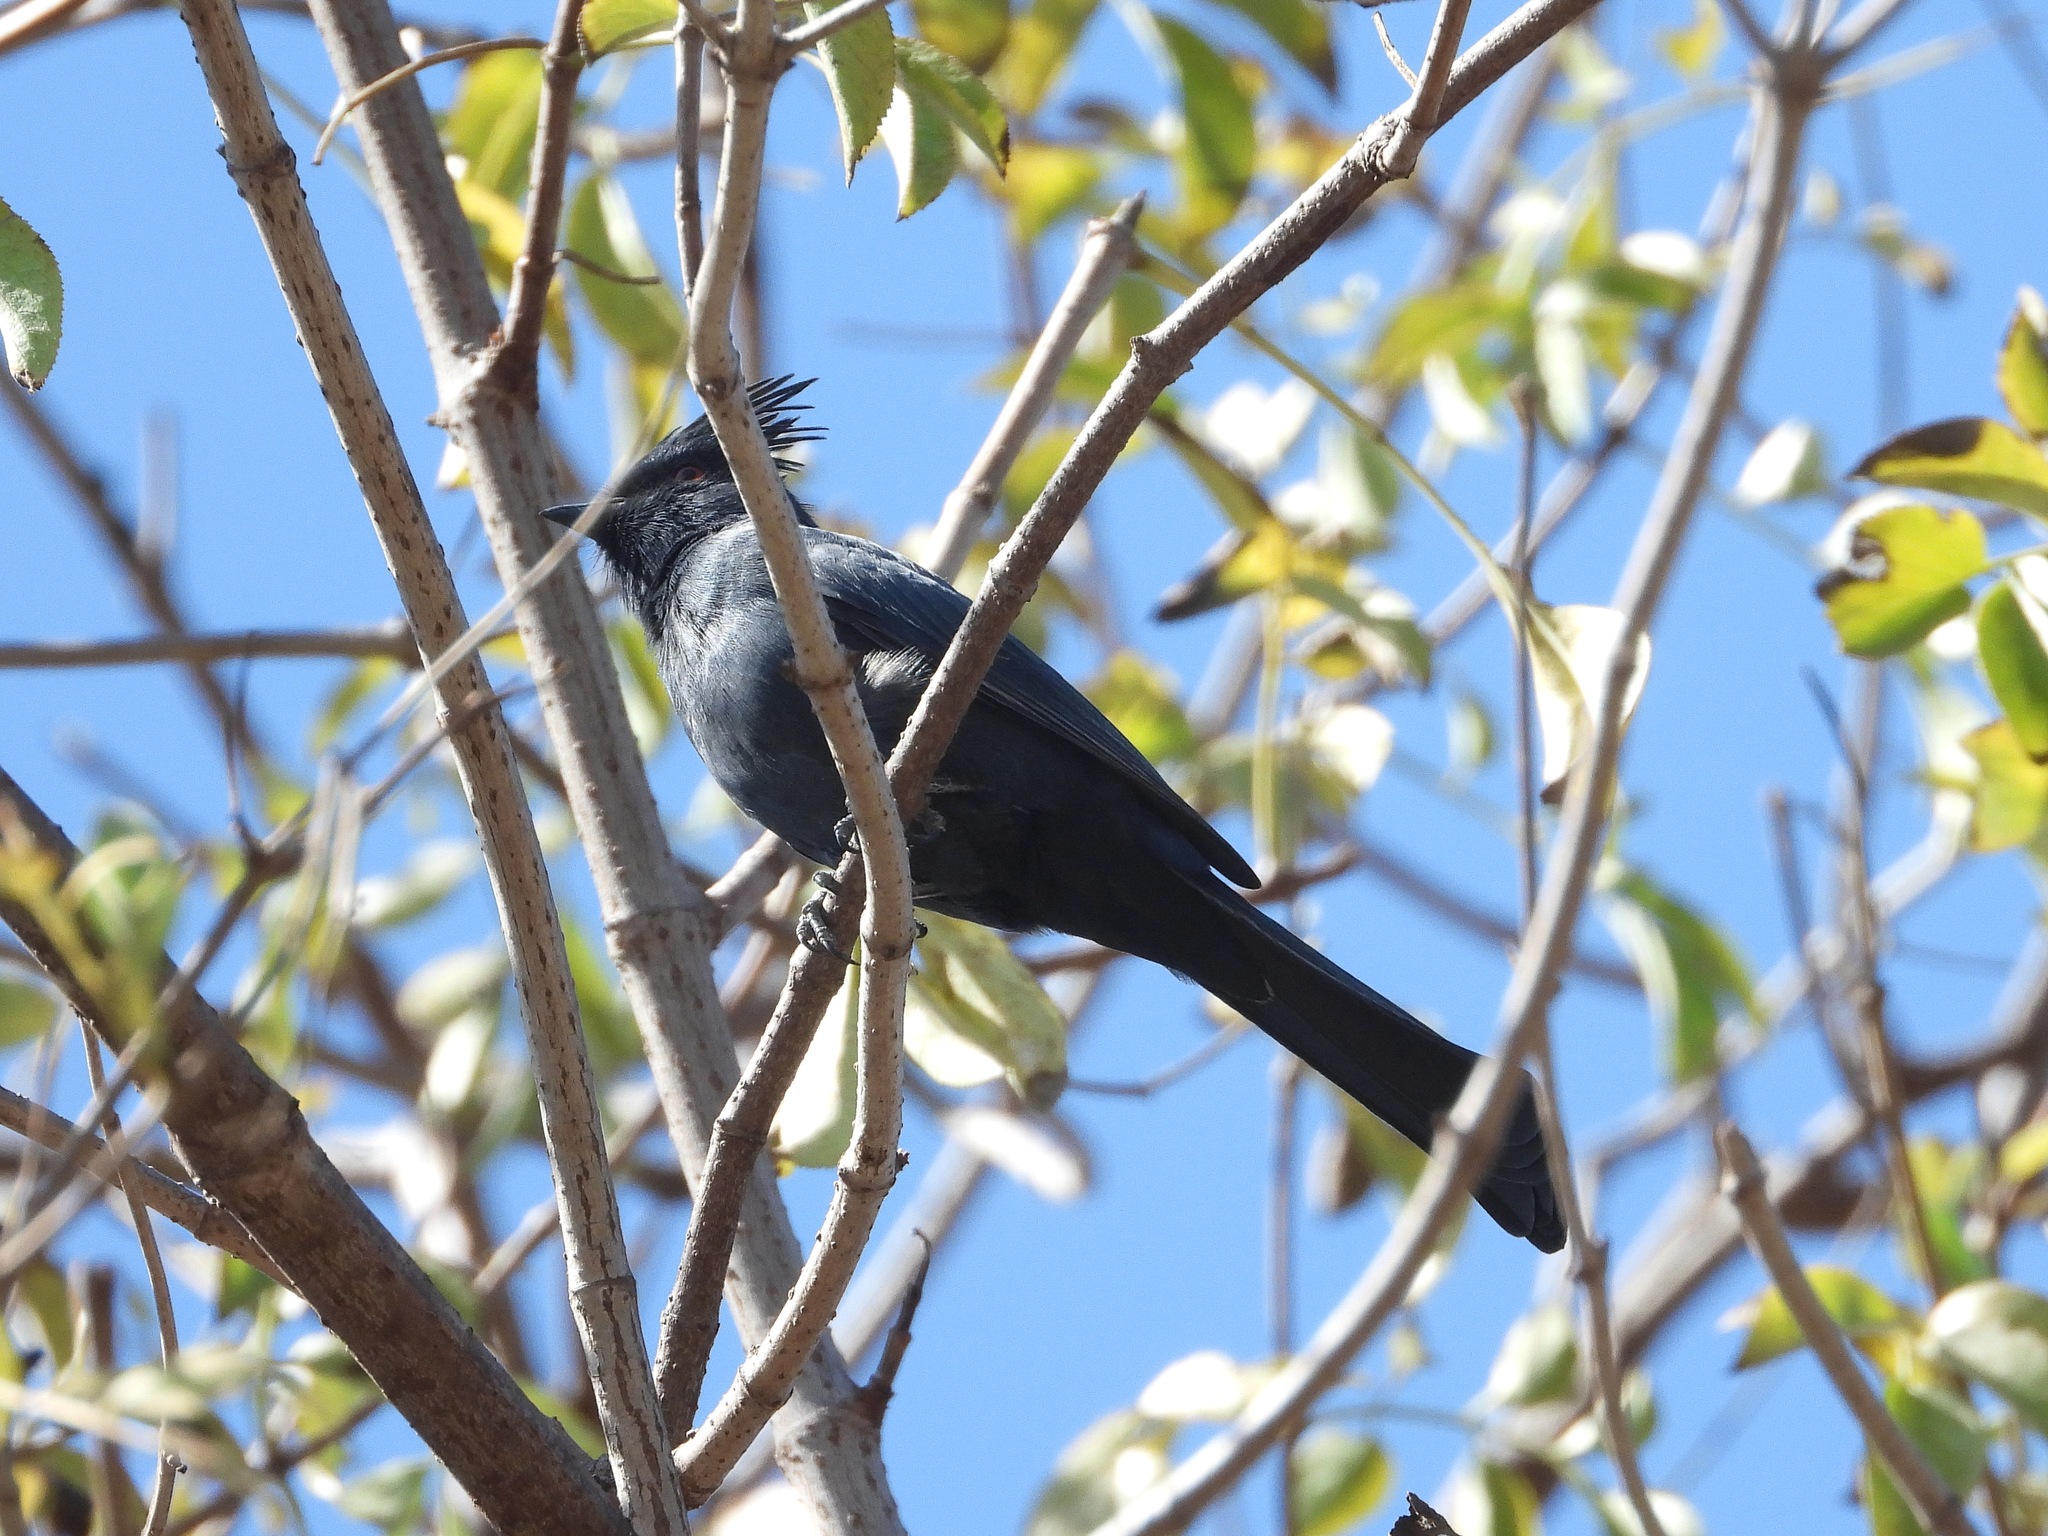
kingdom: Animalia
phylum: Chordata
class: Aves
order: Passeriformes
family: Ptilogonatidae
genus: Phainopepla
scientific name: Phainopepla nitens
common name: Phainopepla
